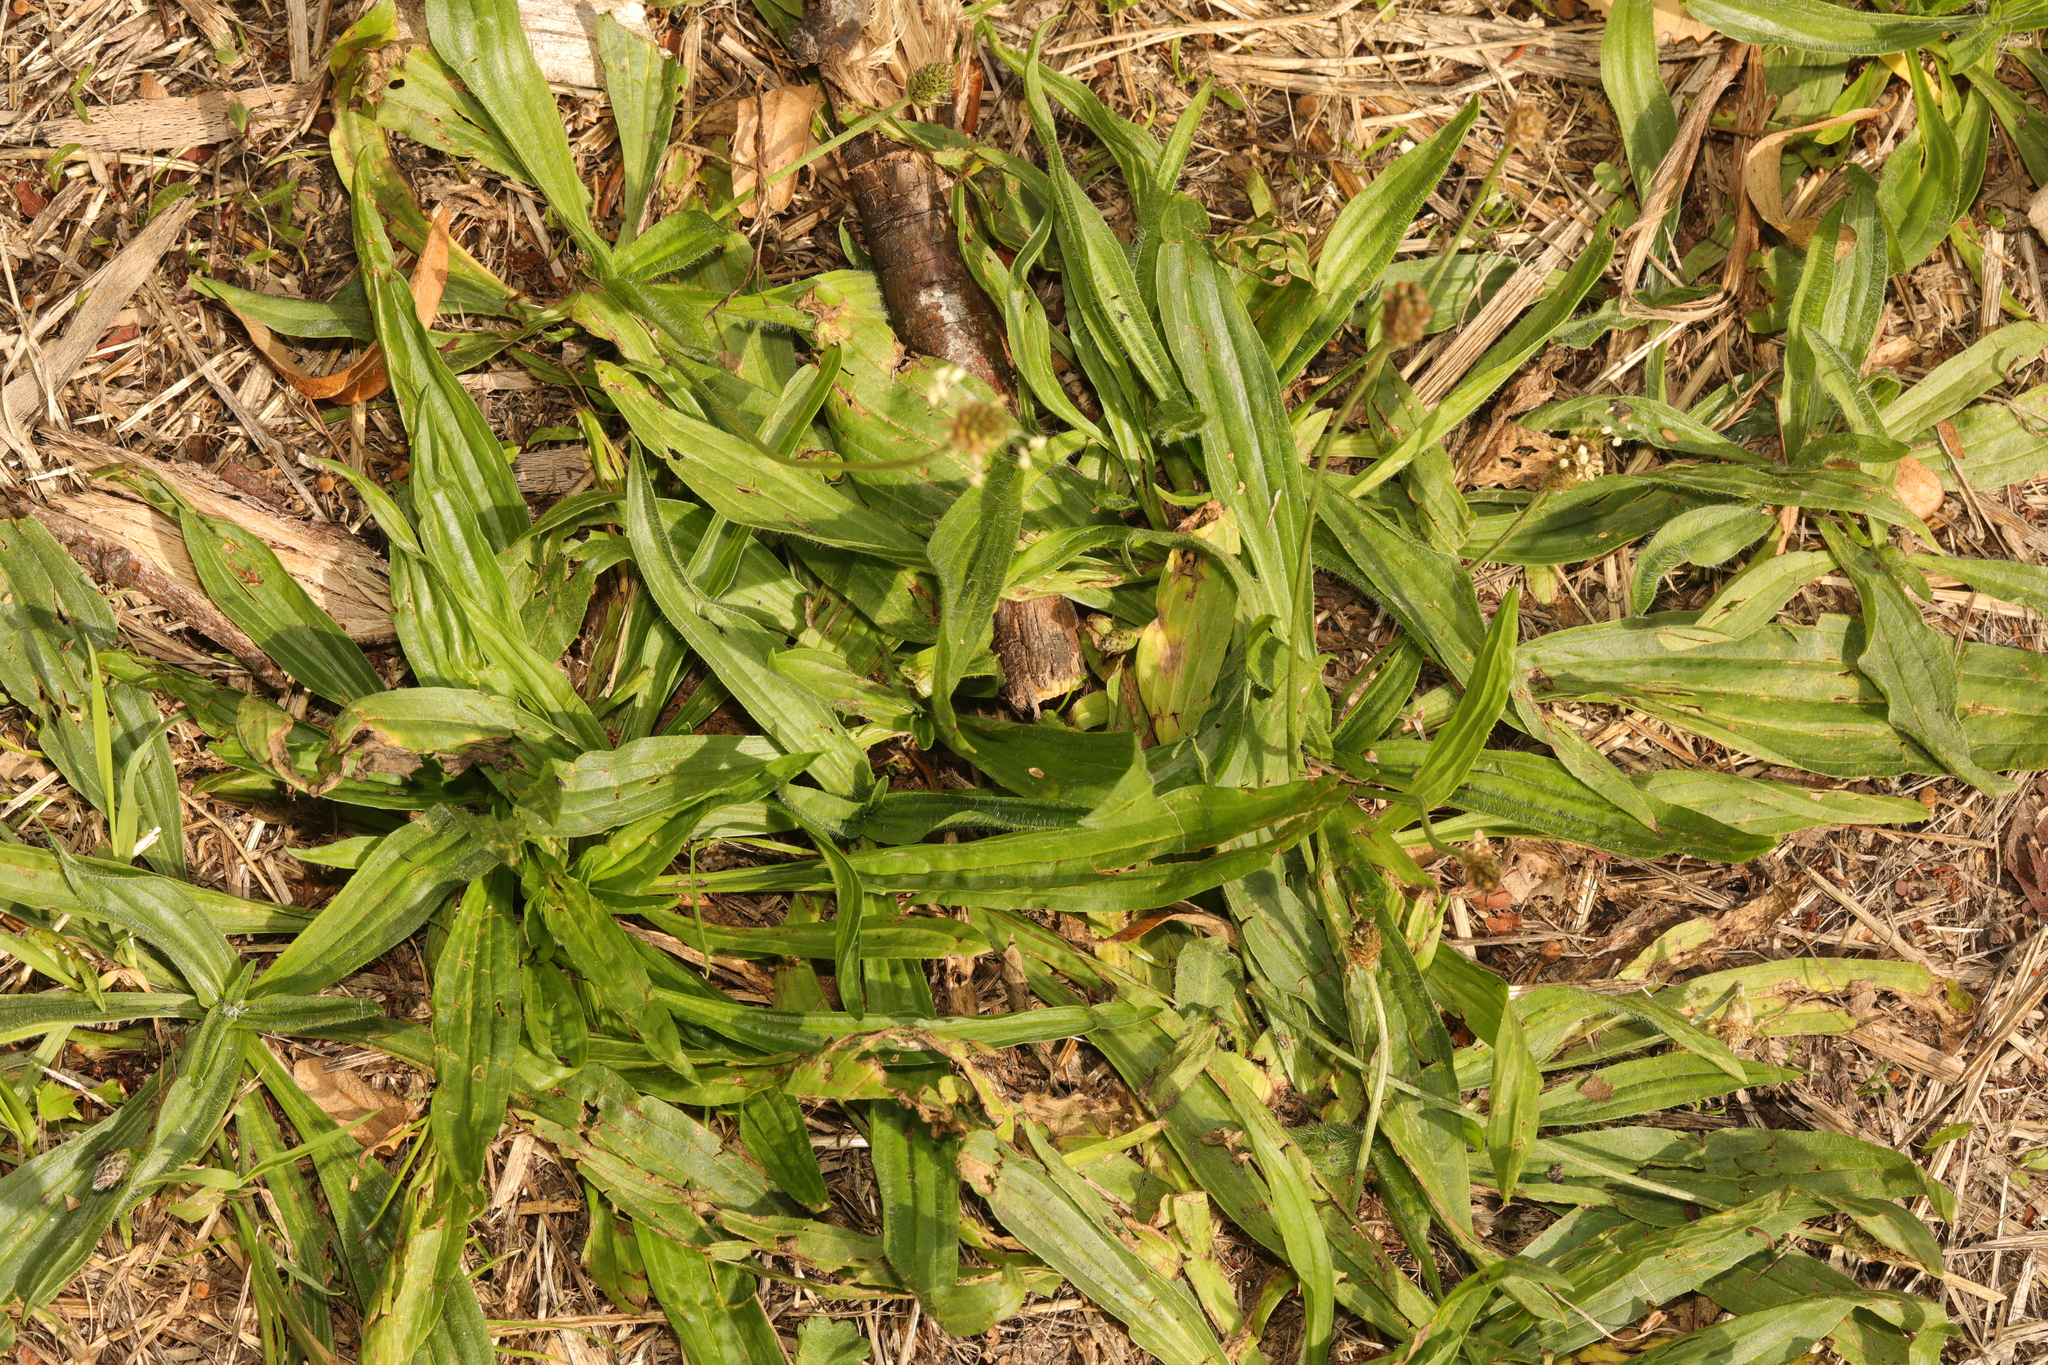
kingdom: Plantae
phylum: Tracheophyta
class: Magnoliopsida
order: Lamiales
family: Plantaginaceae
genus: Plantago
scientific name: Plantago lanceolata
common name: Ribwort plantain
